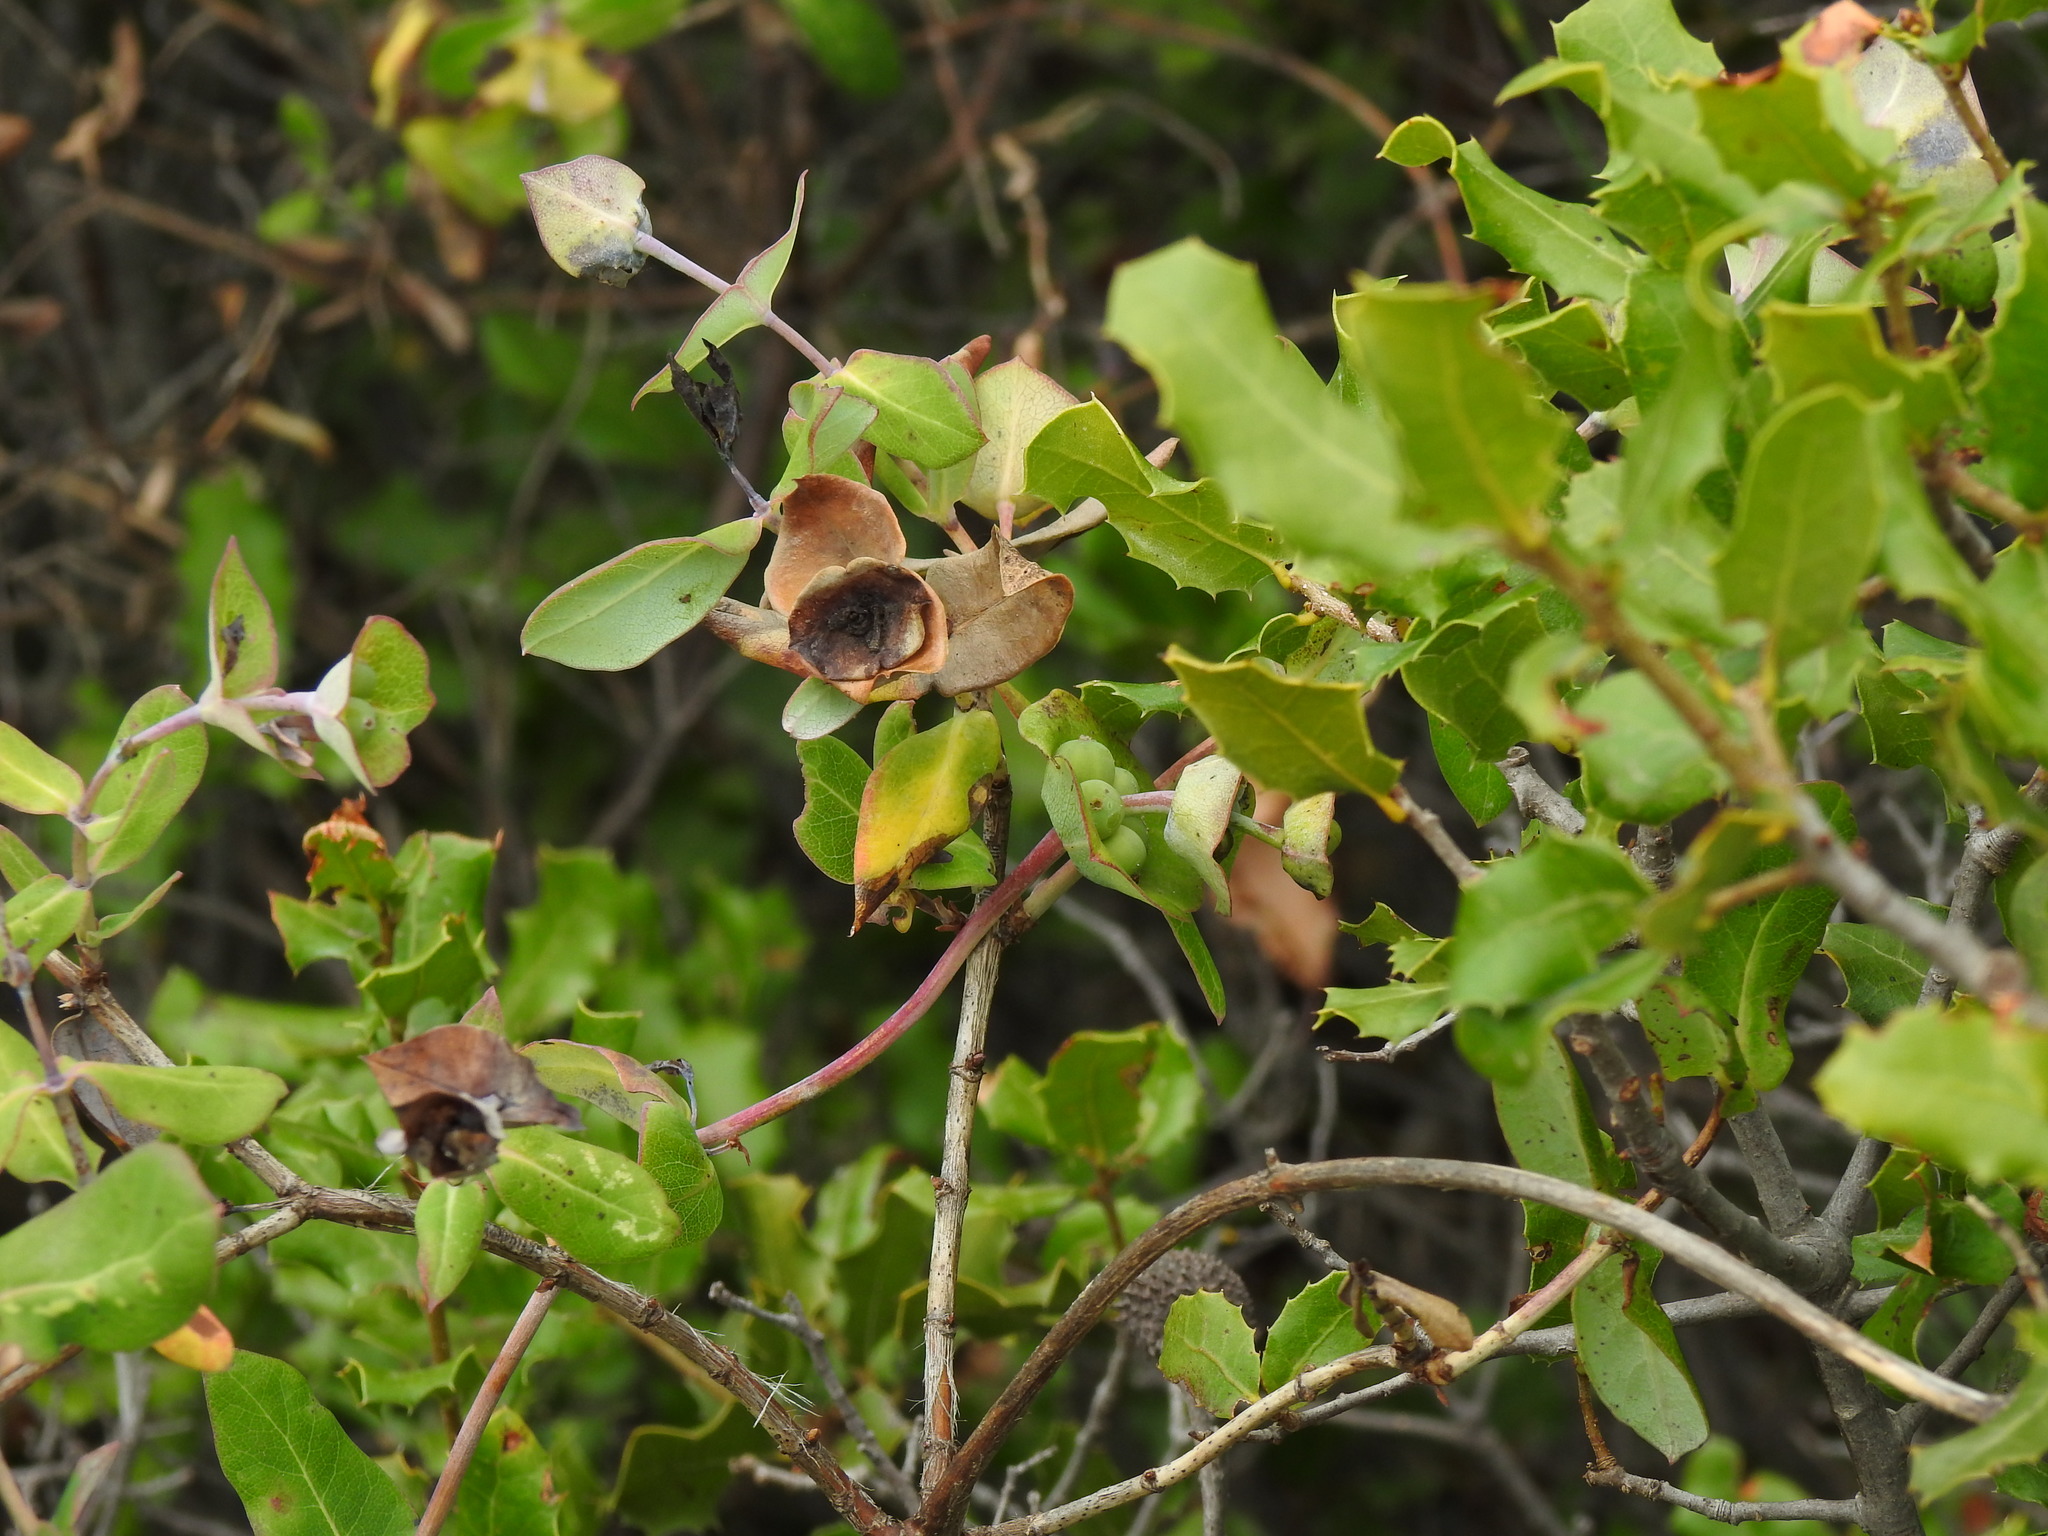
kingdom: Plantae
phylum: Tracheophyta
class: Magnoliopsida
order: Dipsacales
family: Caprifoliaceae
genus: Lonicera
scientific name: Lonicera implexa
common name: Minorca honeysuckle
